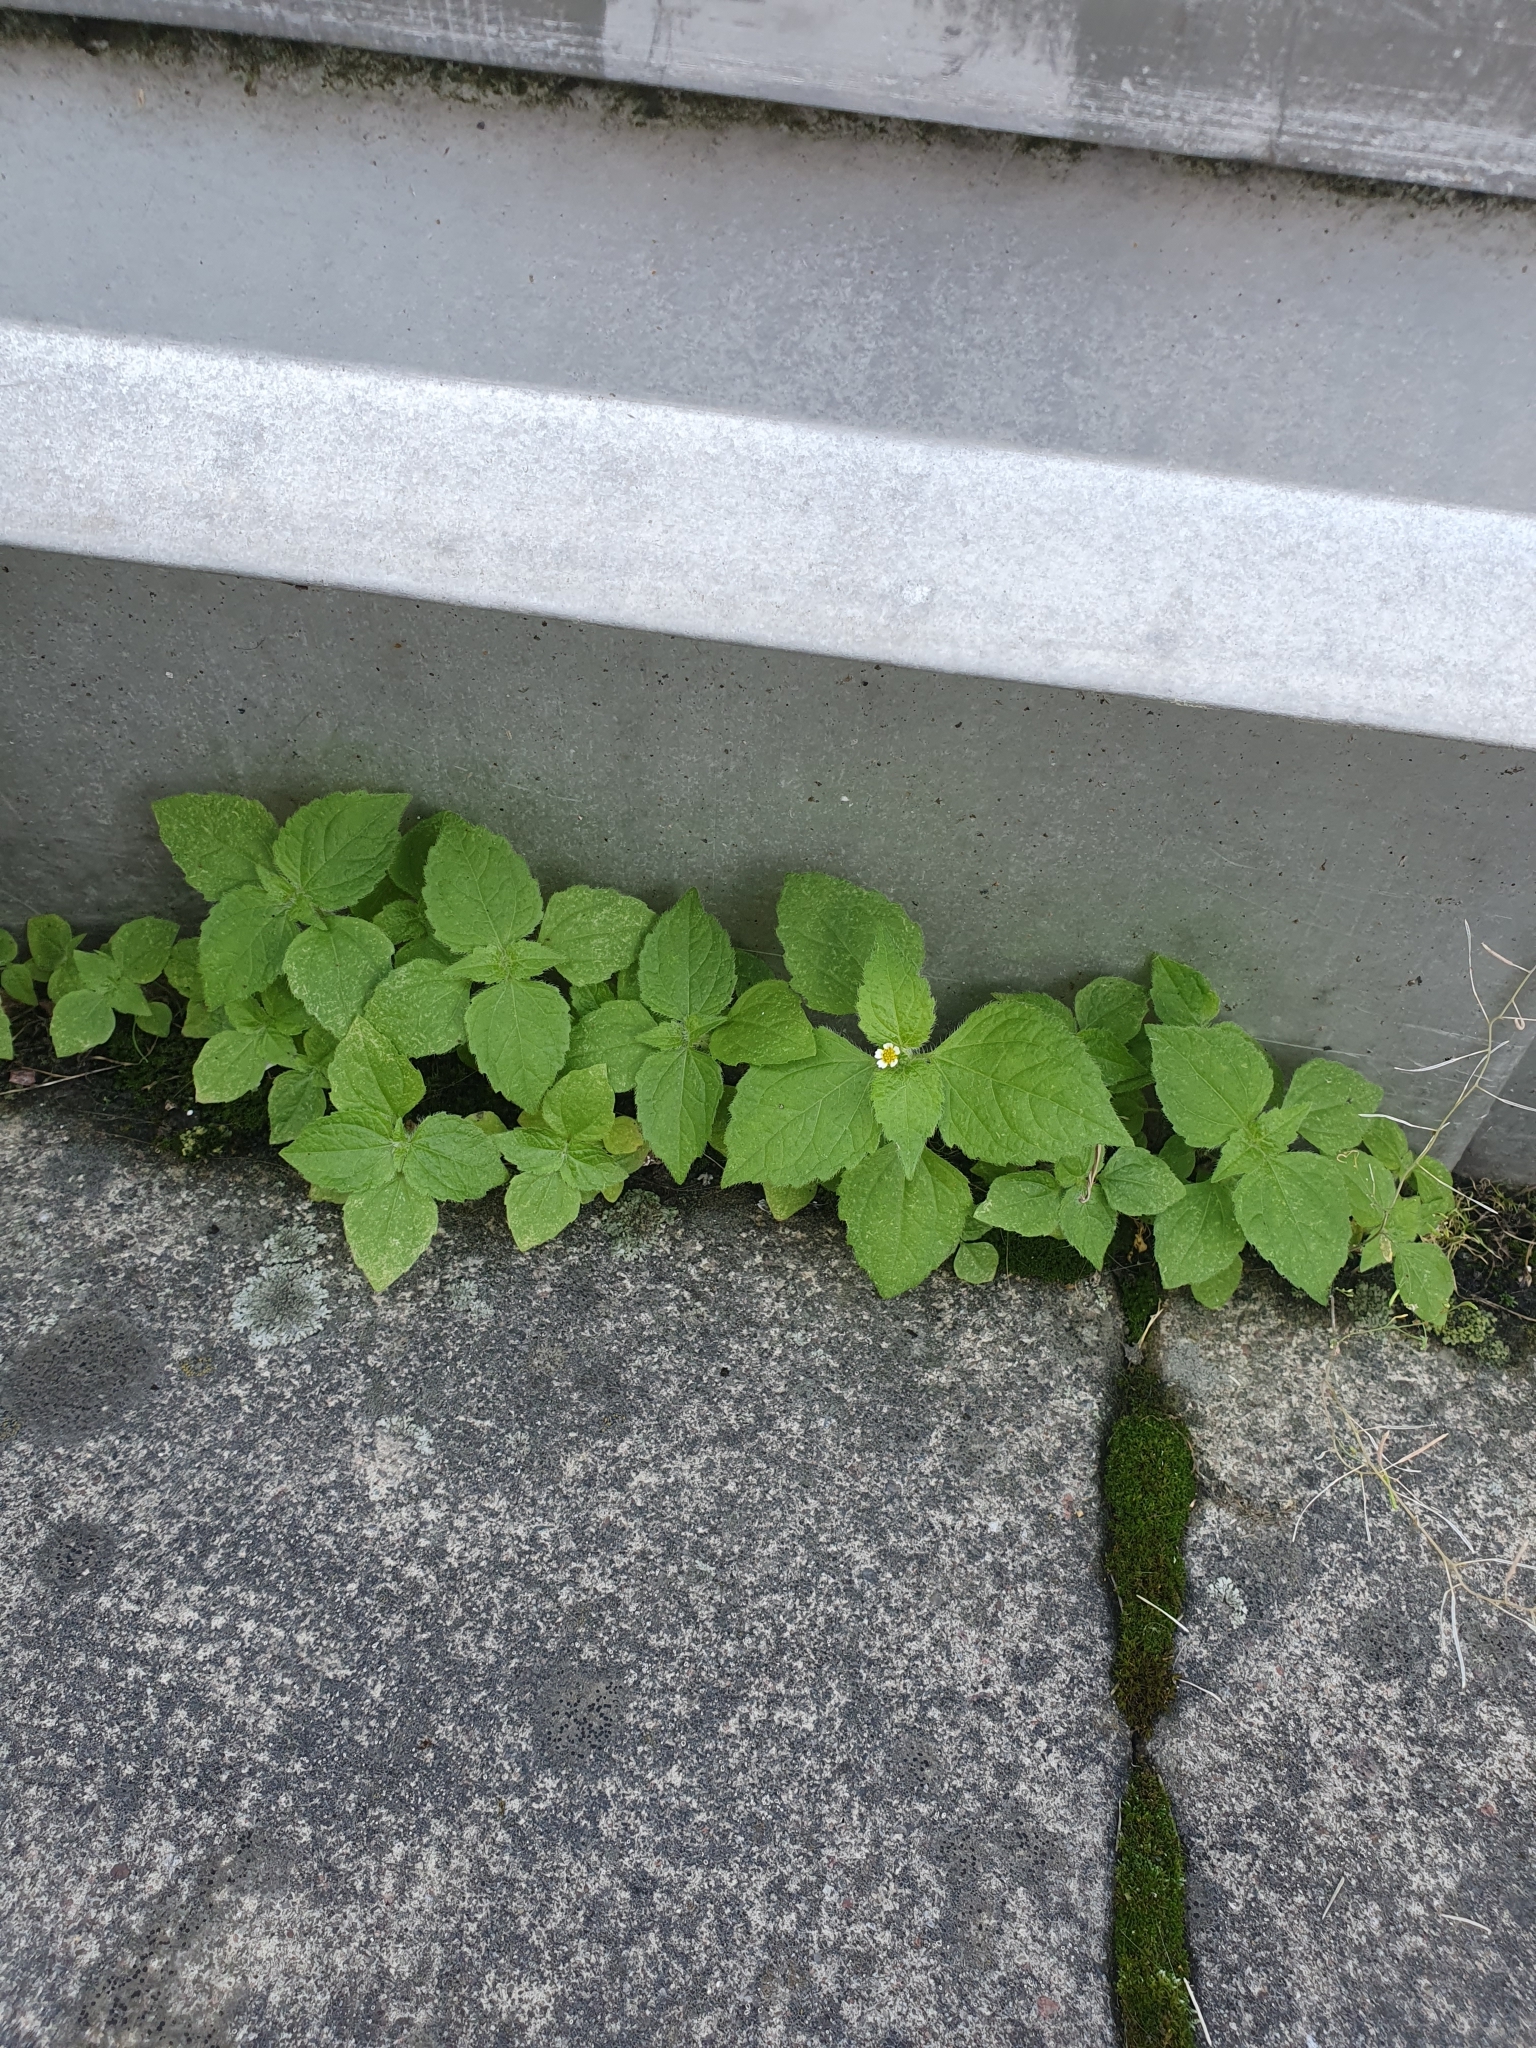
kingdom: Plantae
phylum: Tracheophyta
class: Magnoliopsida
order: Asterales
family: Asteraceae
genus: Galinsoga
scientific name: Galinsoga quadriradiata
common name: Shaggy soldier
